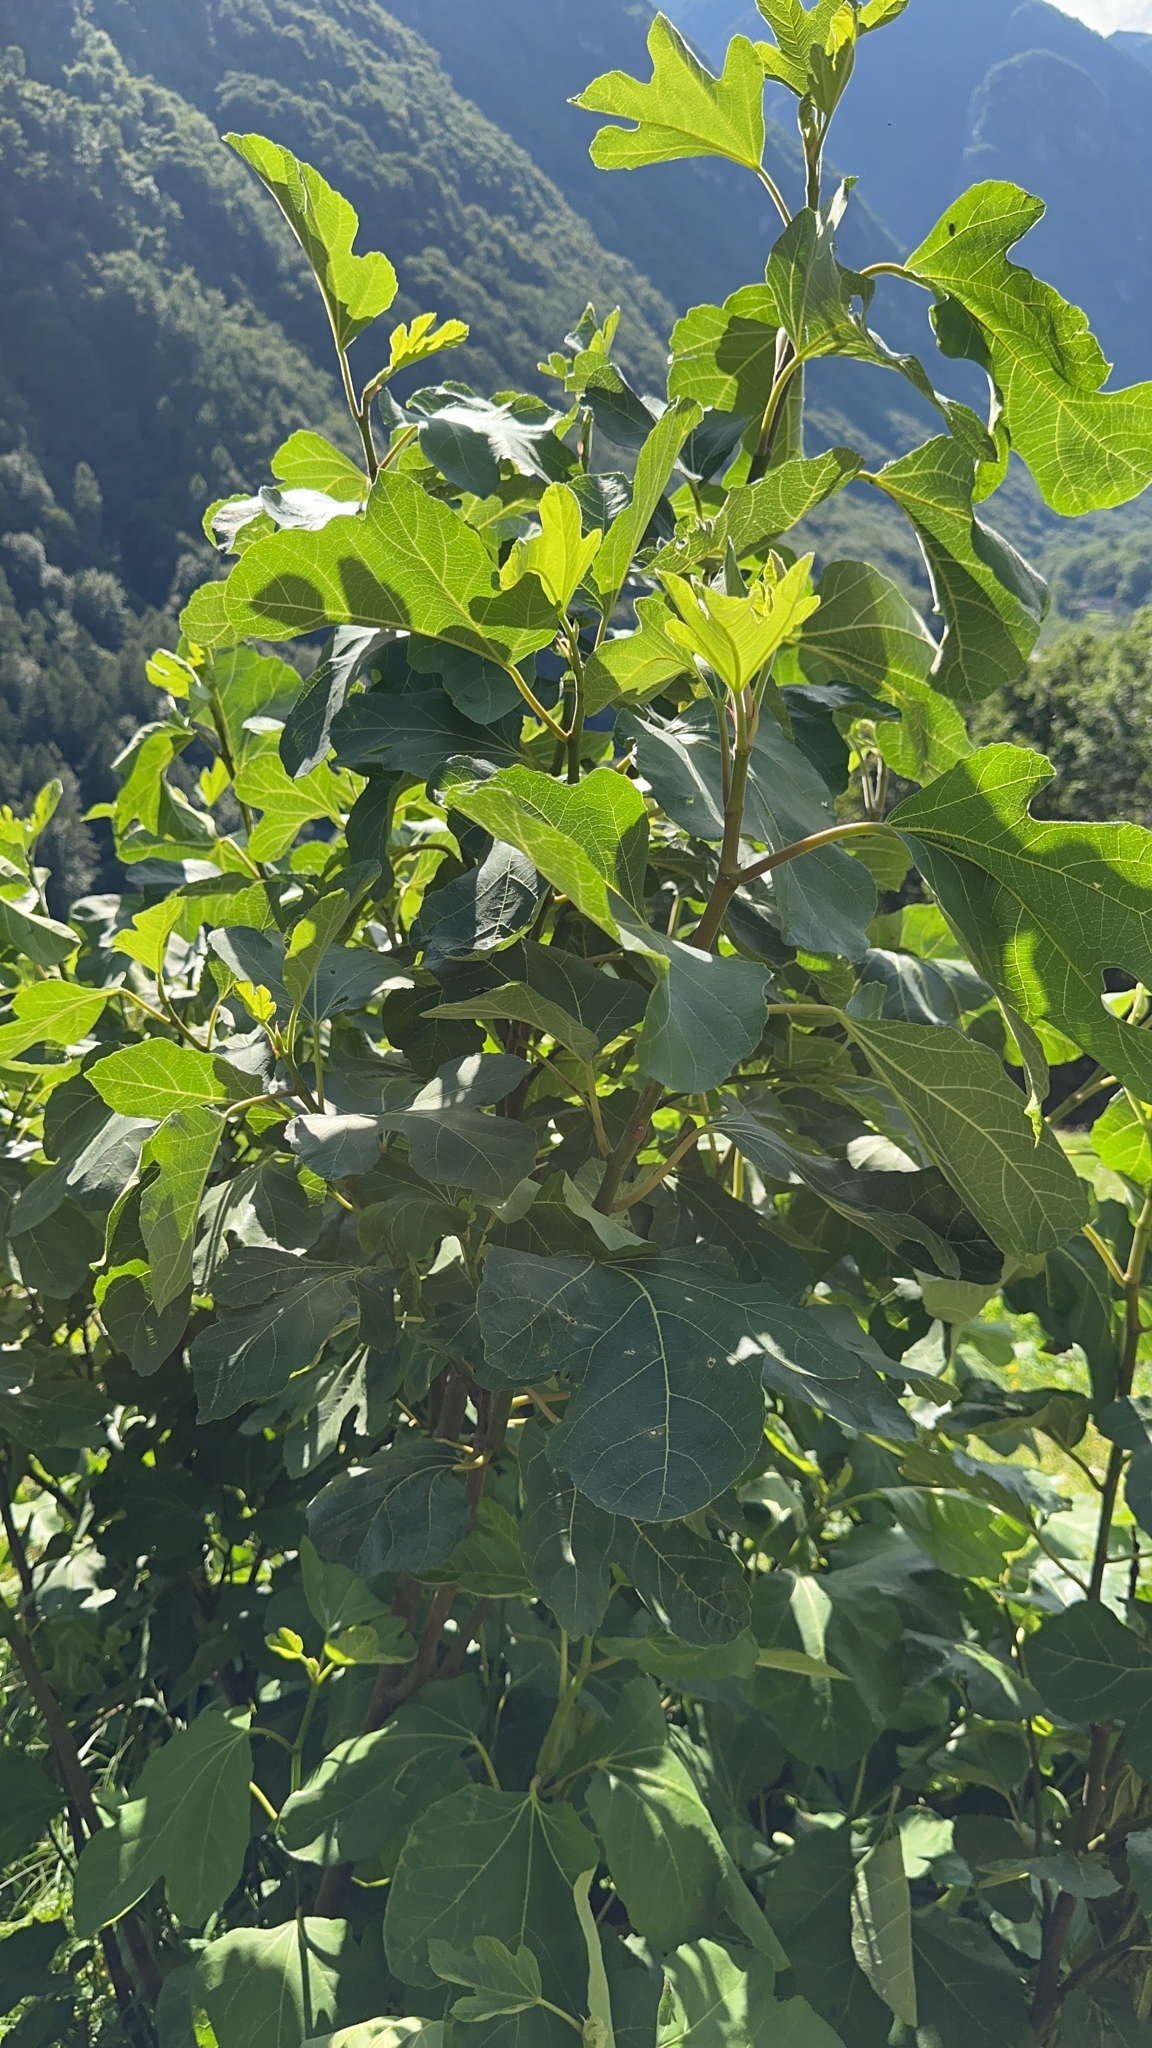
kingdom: Plantae
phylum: Tracheophyta
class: Magnoliopsida
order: Rosales
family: Moraceae
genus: Ficus
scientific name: Ficus carica
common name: Fig
